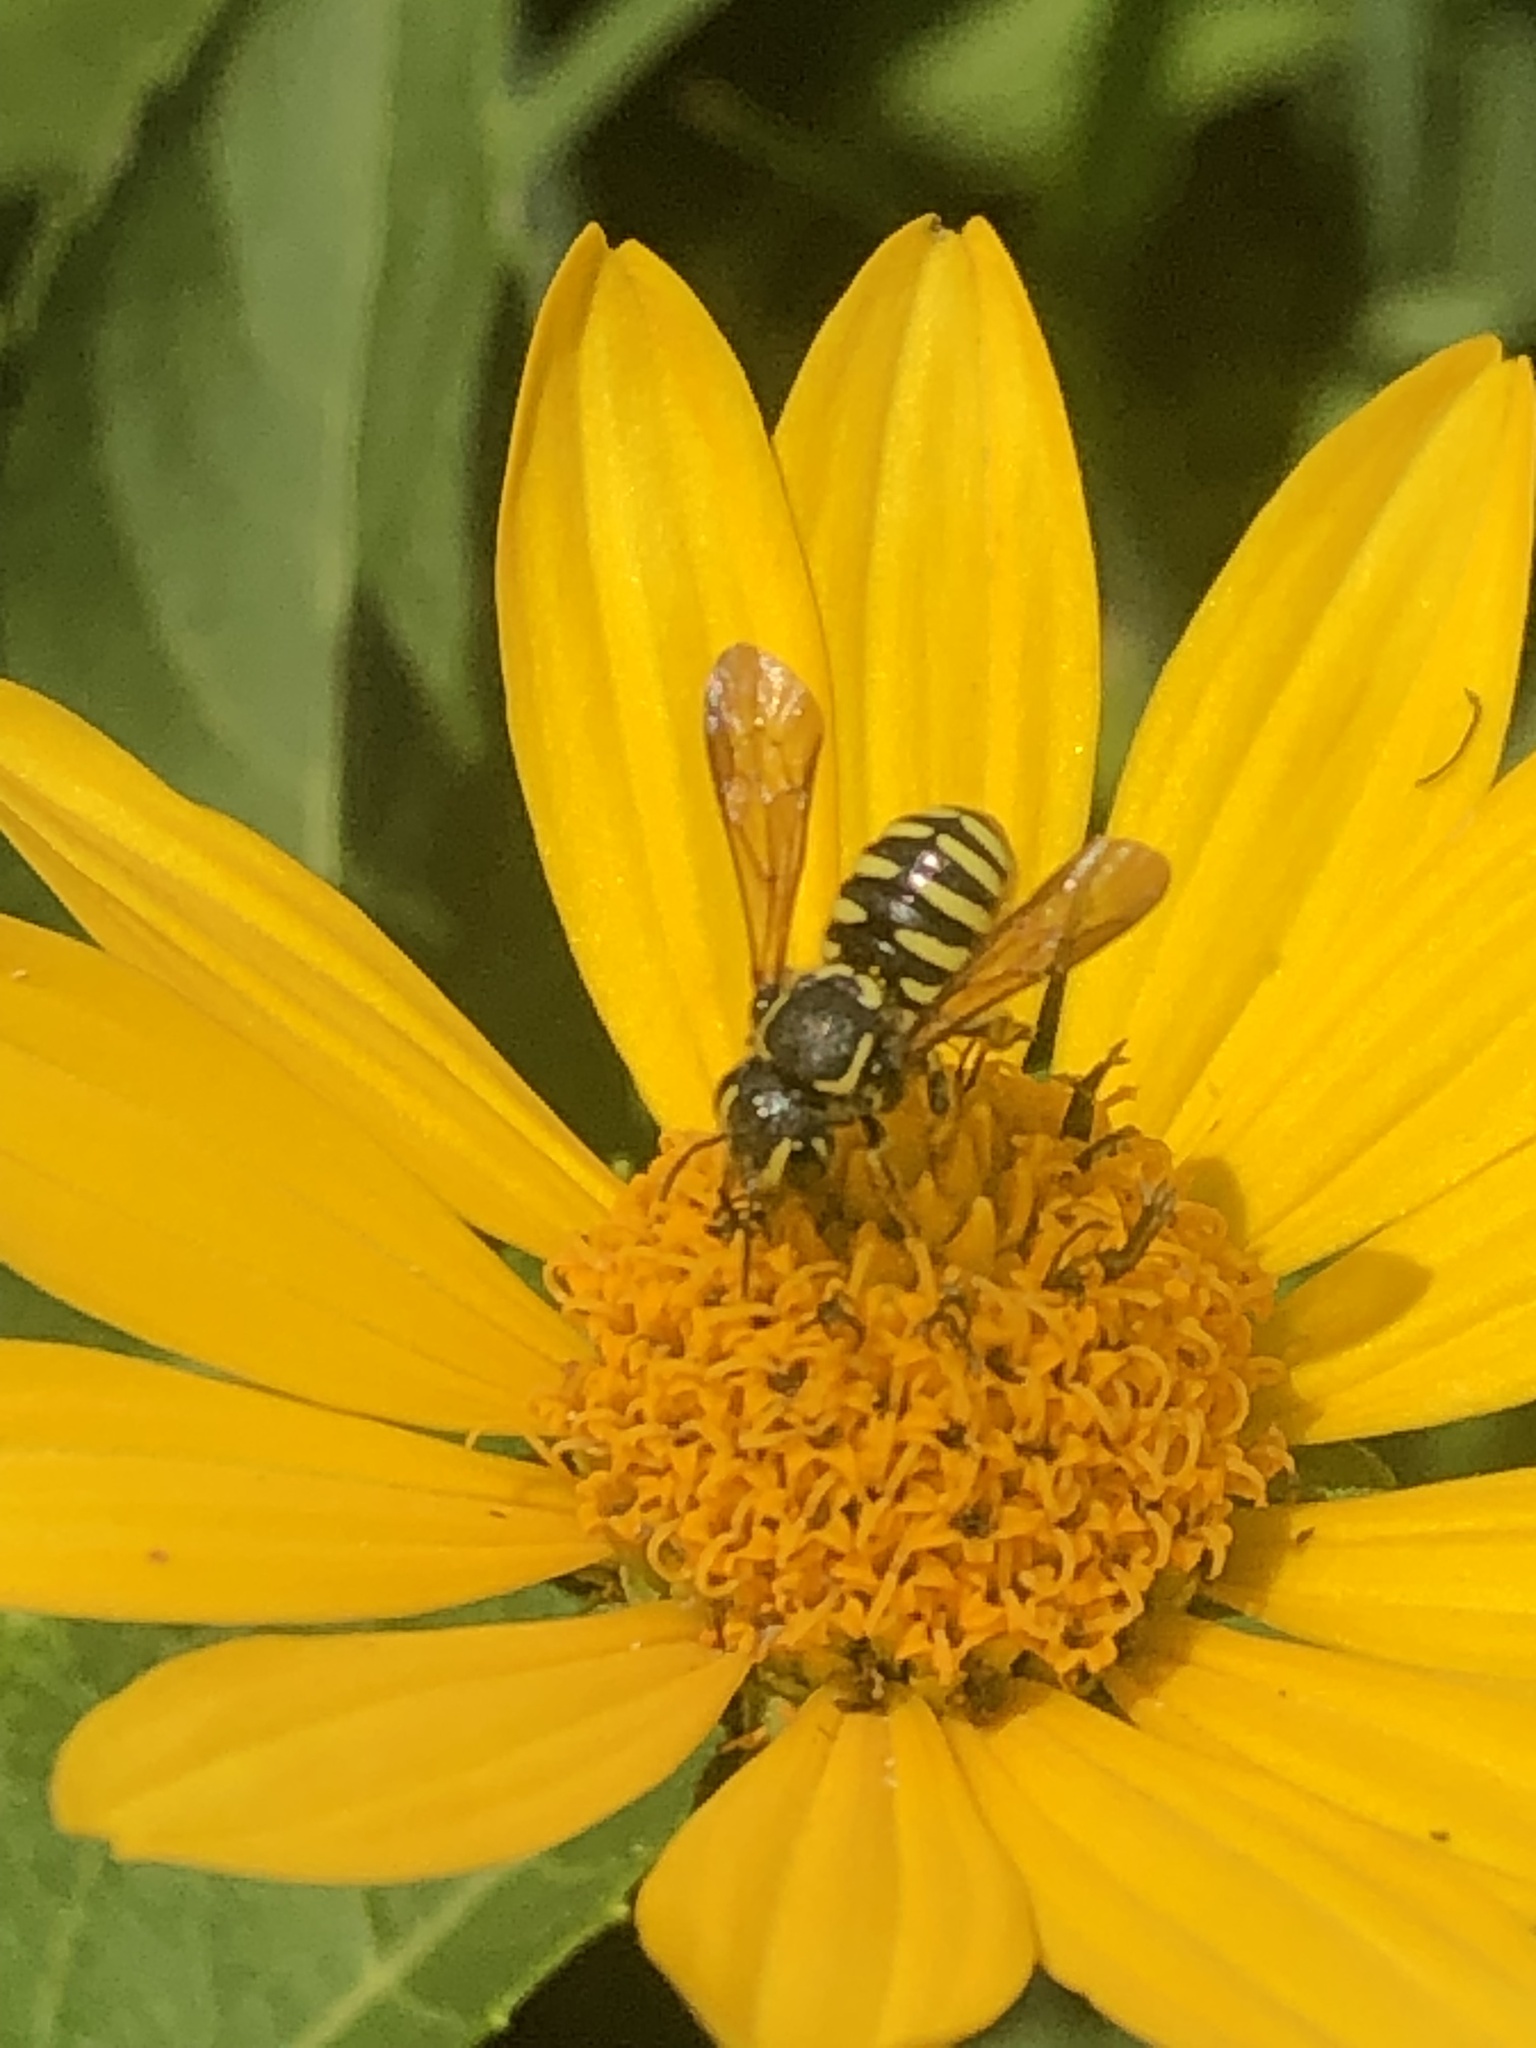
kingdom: Animalia
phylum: Arthropoda
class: Insecta
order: Hymenoptera
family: Megachilidae
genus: Paranthidium
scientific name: Paranthidium jugatorium
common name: Sunflower burrowing-resin bee
